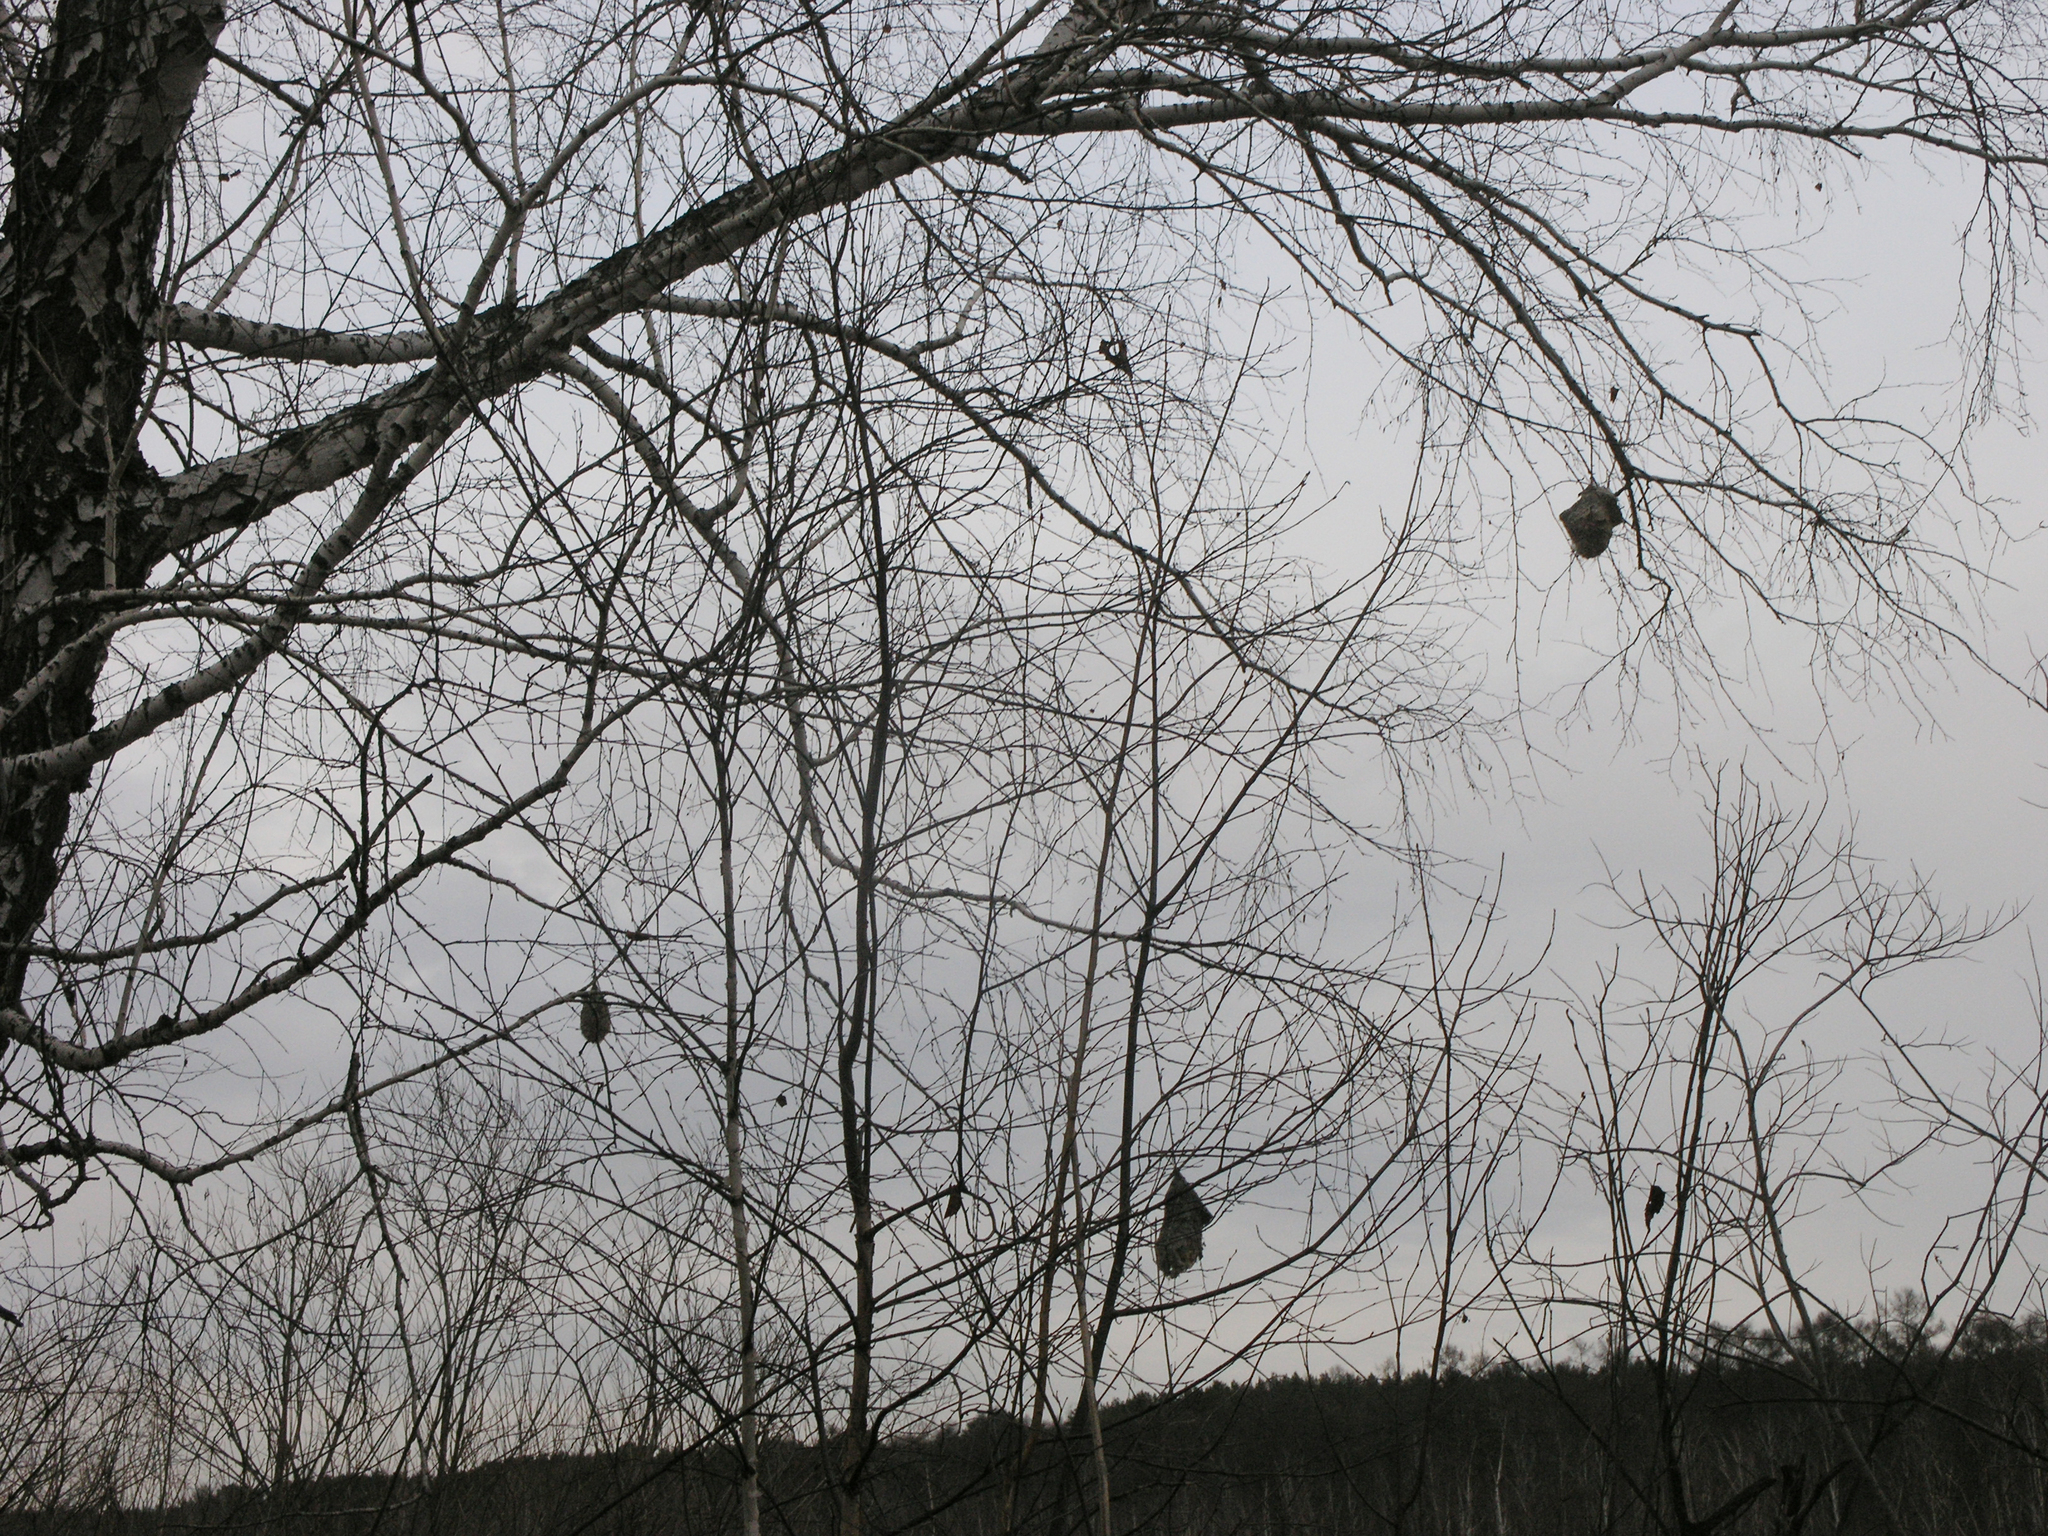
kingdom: Animalia
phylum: Chordata
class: Aves
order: Passeriformes
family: Remizidae
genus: Remiz
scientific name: Remiz pendulinus
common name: Eurasian penduline tit
